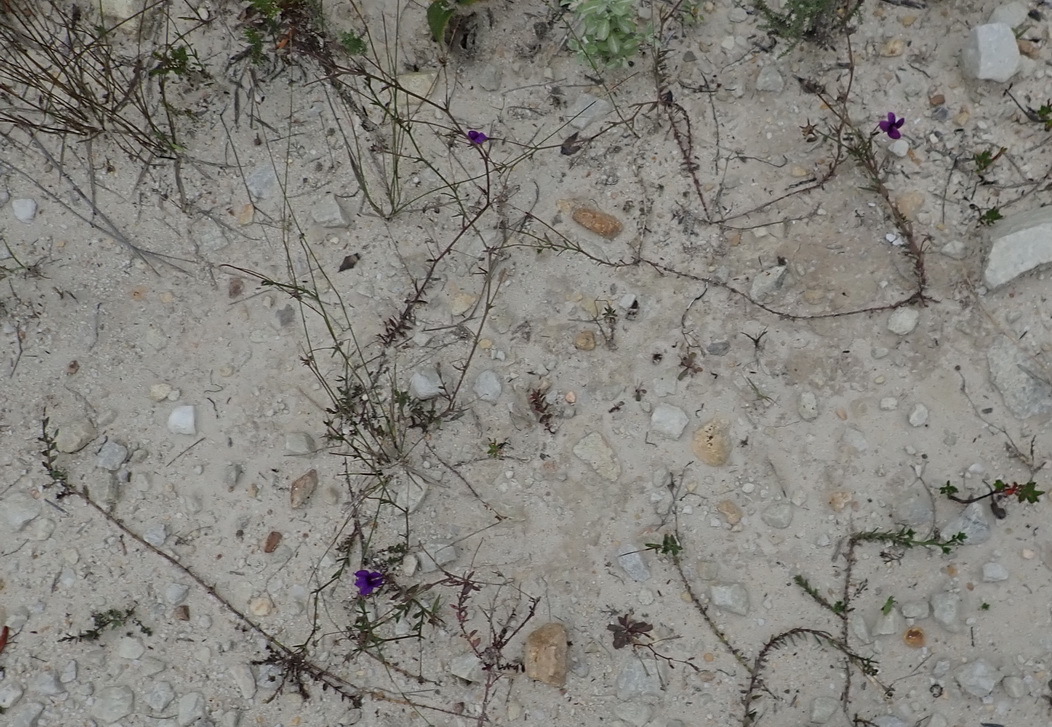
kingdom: Plantae
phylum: Tracheophyta
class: Magnoliopsida
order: Asterales
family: Campanulaceae
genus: Monopsis
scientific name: Monopsis unidentata
